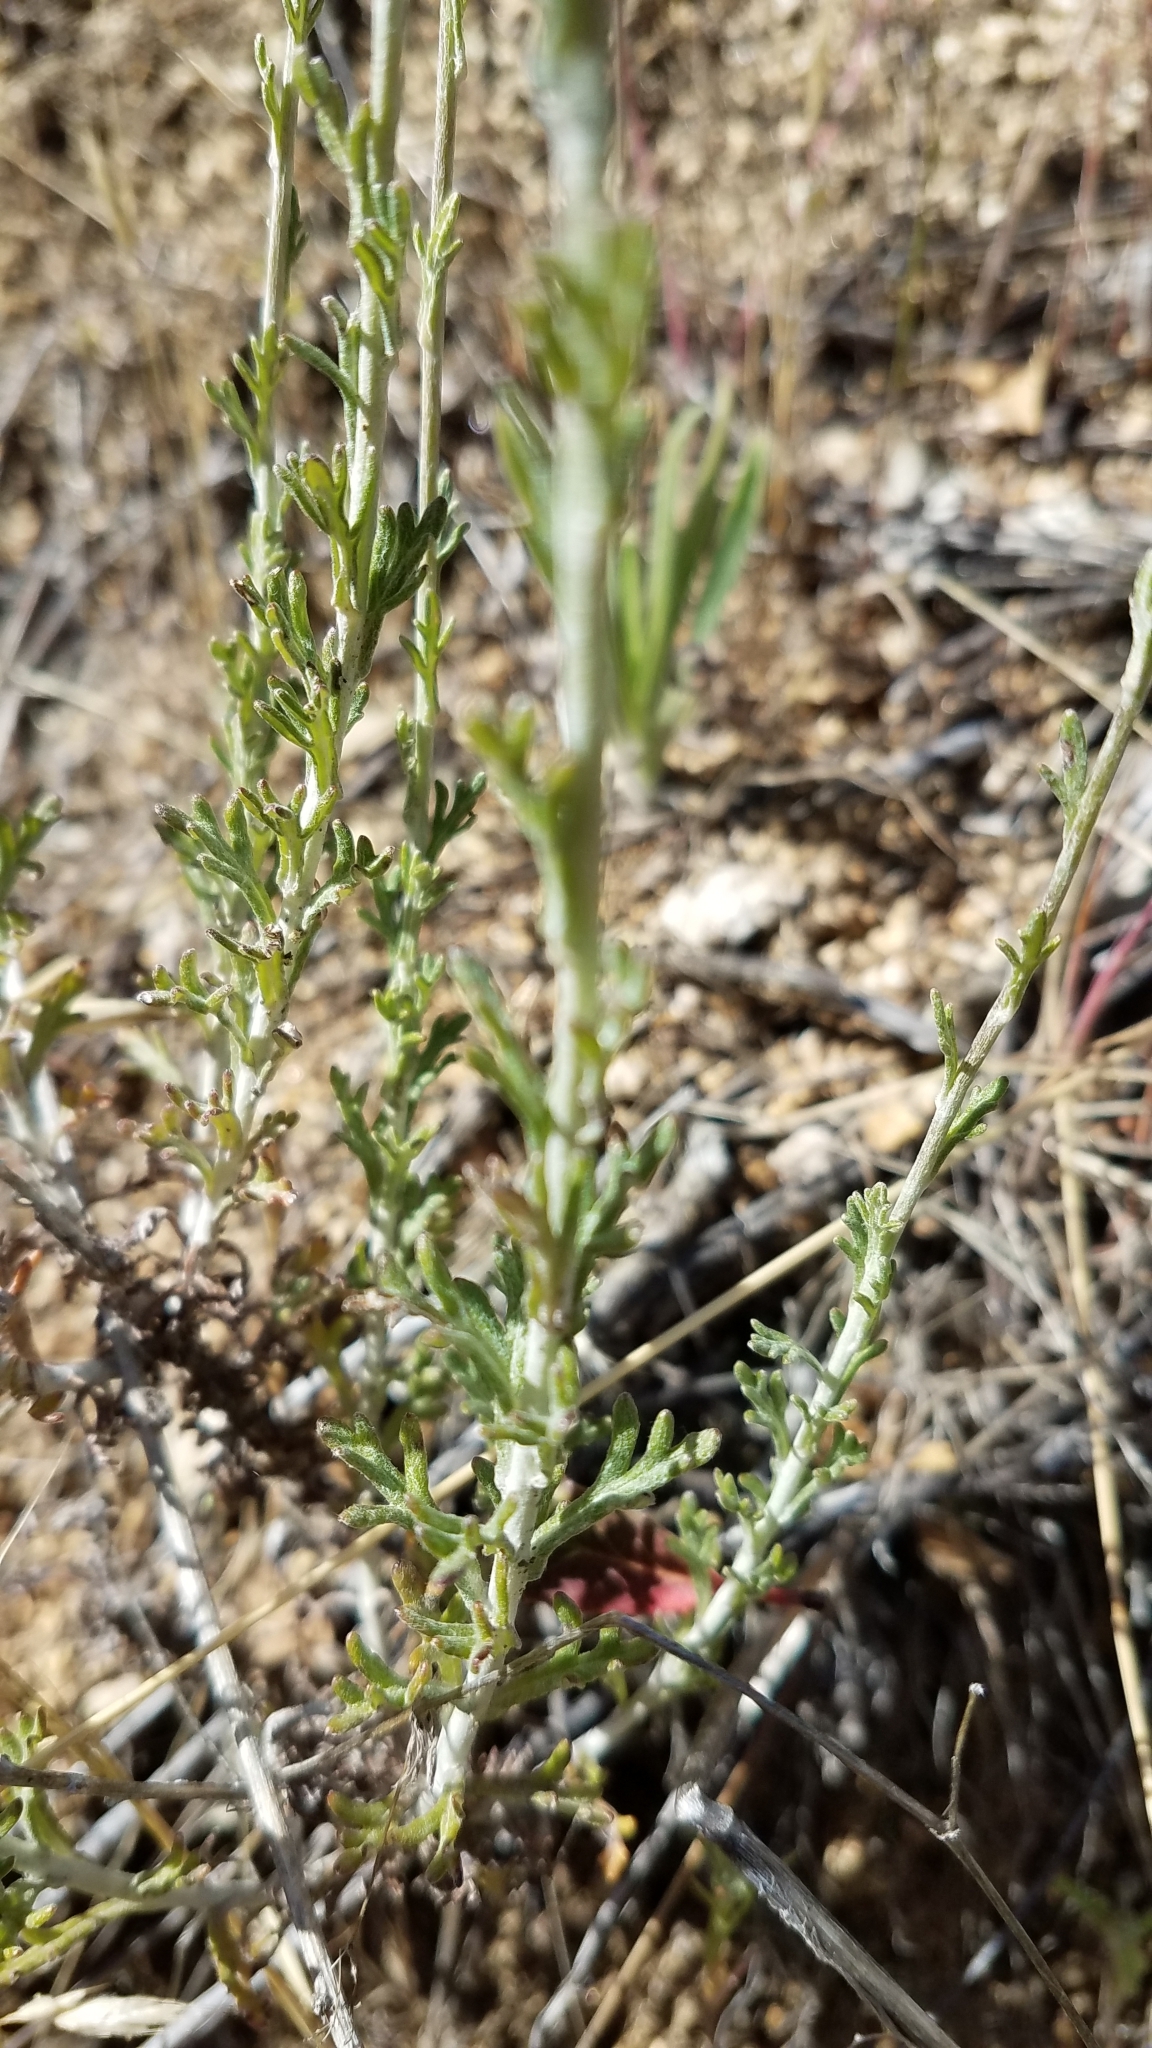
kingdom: Plantae
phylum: Tracheophyta
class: Magnoliopsida
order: Asterales
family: Asteraceae
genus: Eriophyllum
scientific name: Eriophyllum confertiflorum
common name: Golden-yarrow
